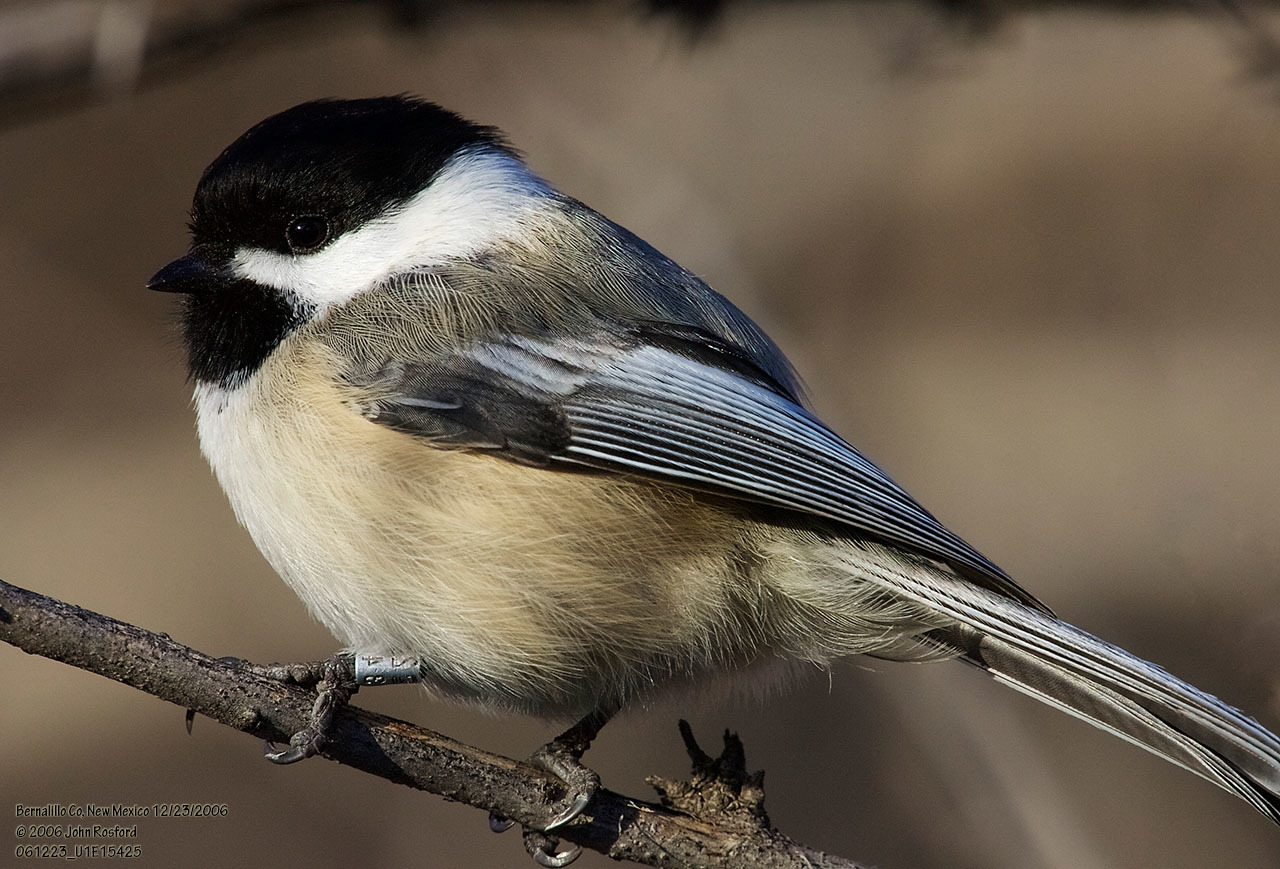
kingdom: Animalia
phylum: Chordata
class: Aves
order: Passeriformes
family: Paridae
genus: Poecile
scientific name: Poecile atricapillus
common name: Black-capped chickadee
